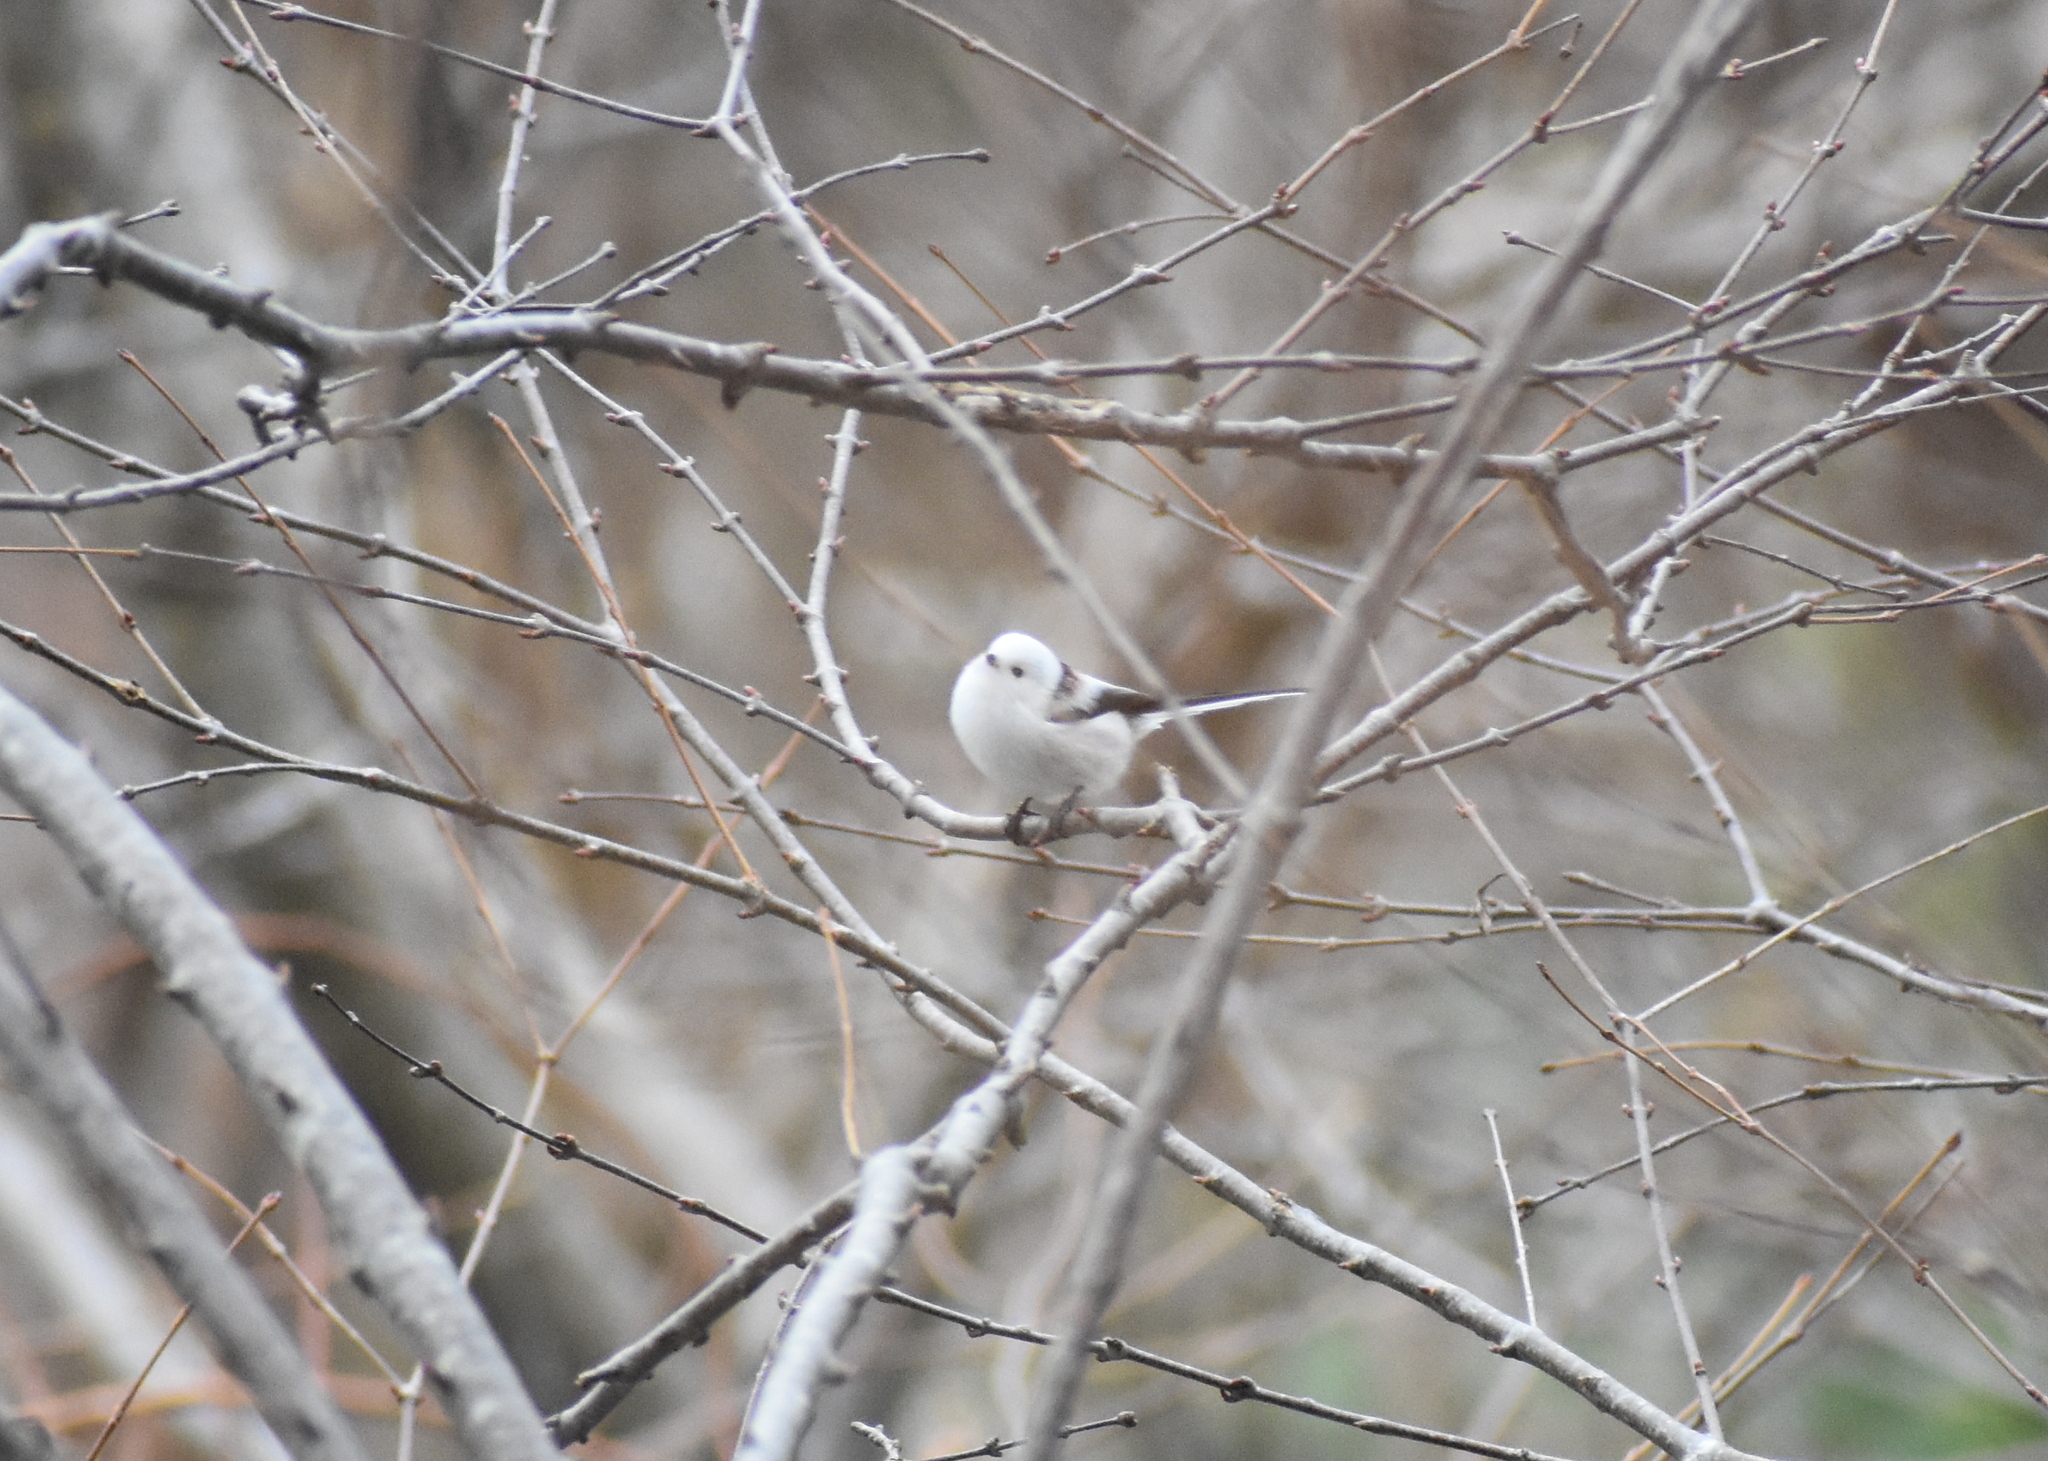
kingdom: Animalia
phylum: Chordata
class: Aves
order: Passeriformes
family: Aegithalidae
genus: Aegithalos
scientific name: Aegithalos caudatus
